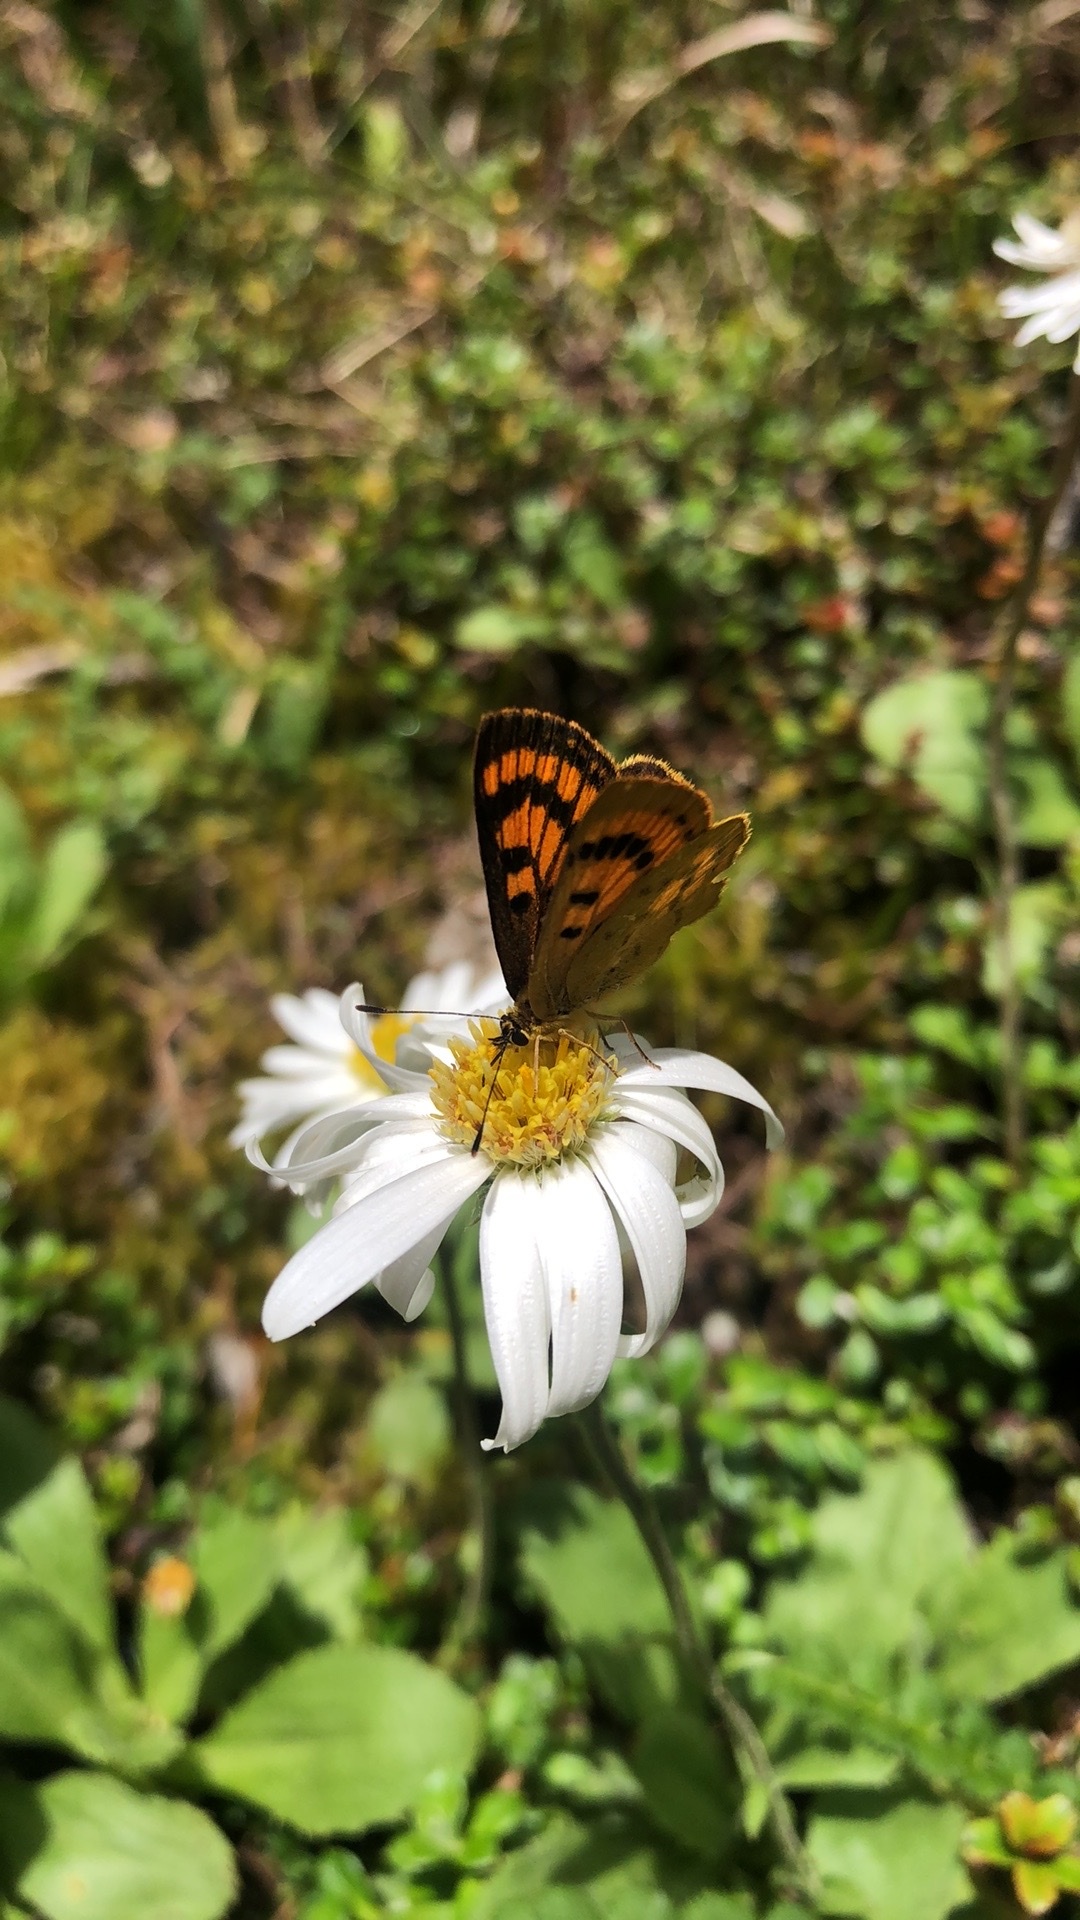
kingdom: Animalia
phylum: Arthropoda
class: Insecta
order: Lepidoptera
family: Lycaenidae
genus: Lycaena
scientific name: Lycaena salustius
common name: North island coastal copper
